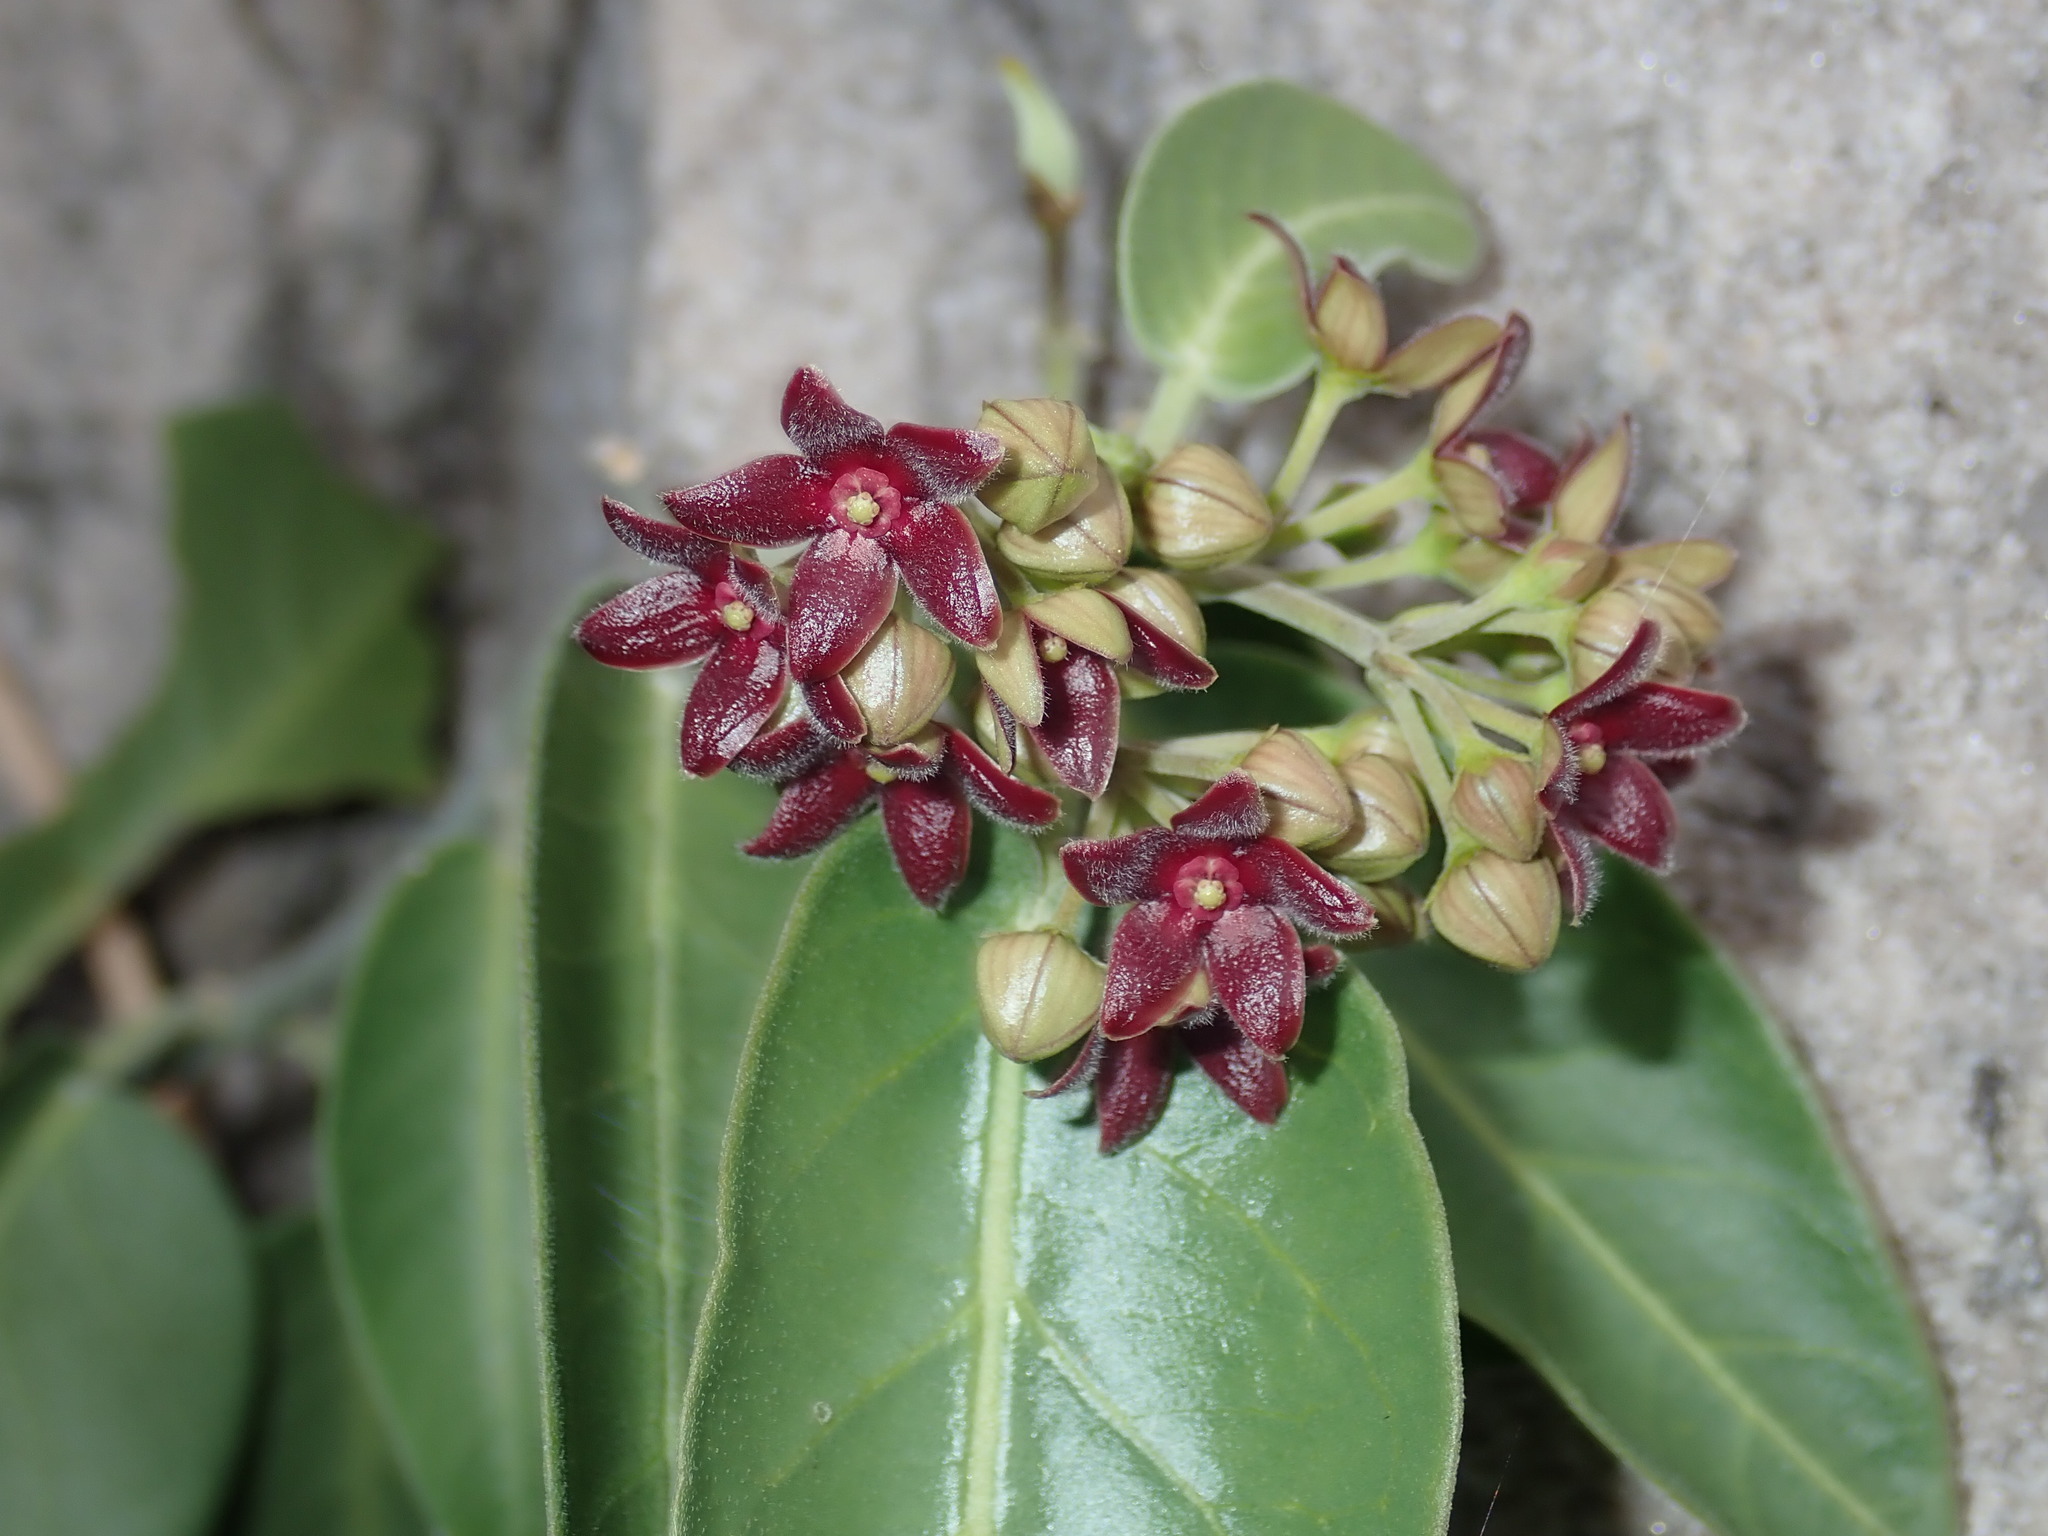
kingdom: Plantae
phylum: Tracheophyta
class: Magnoliopsida
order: Gentianales
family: Apocynaceae
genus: Vincetoxicum
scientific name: Vincetoxicum polyanthum
